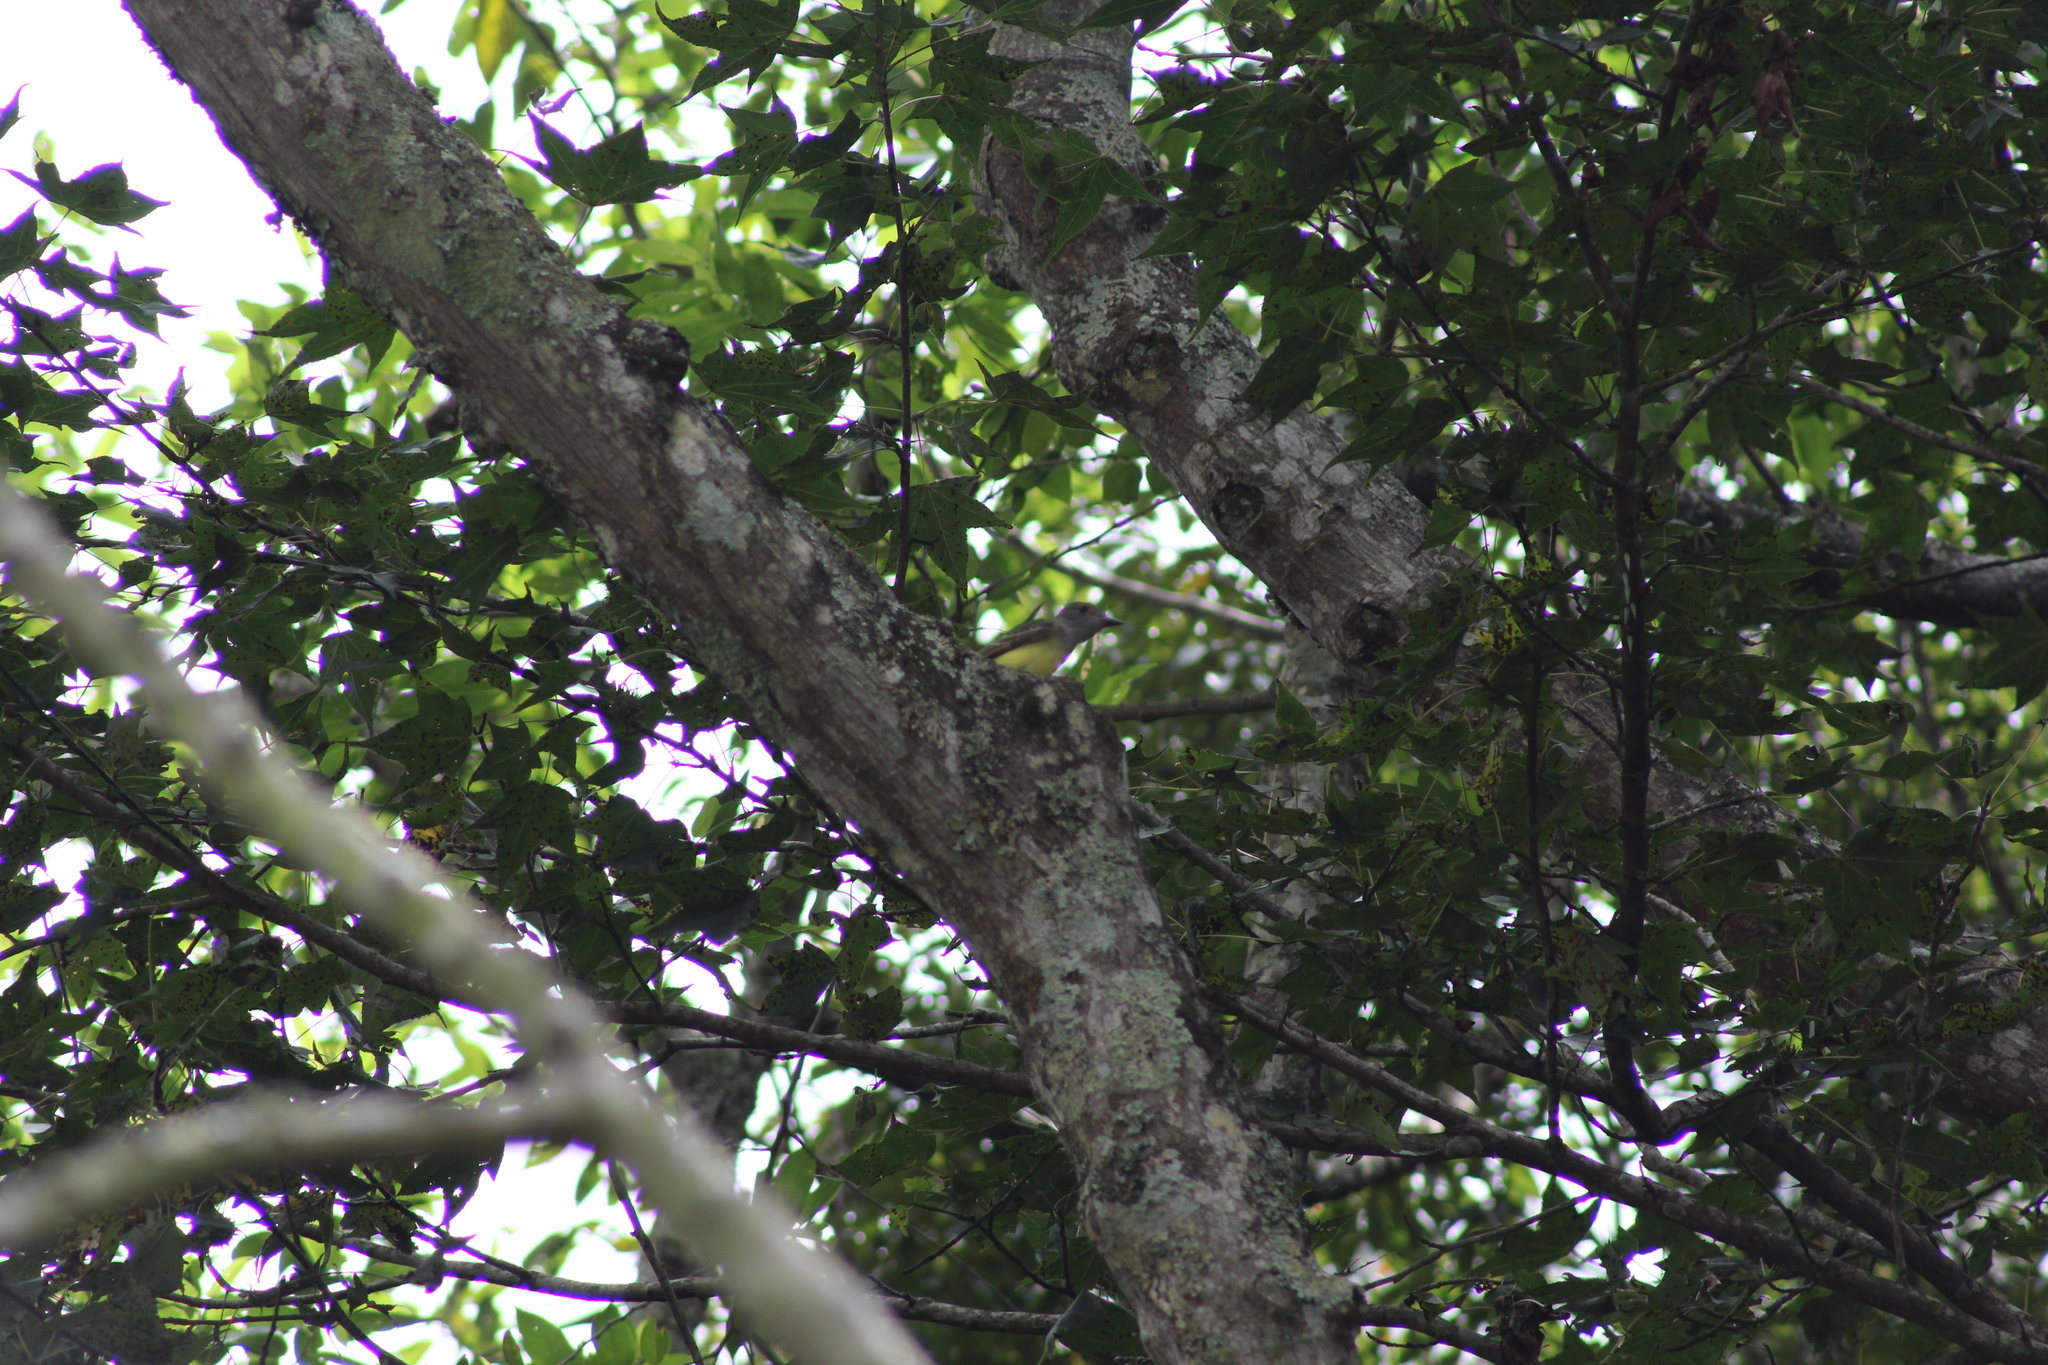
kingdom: Animalia
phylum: Chordata
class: Aves
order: Passeriformes
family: Tyrannidae
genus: Myiarchus
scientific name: Myiarchus crinitus
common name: Great crested flycatcher
